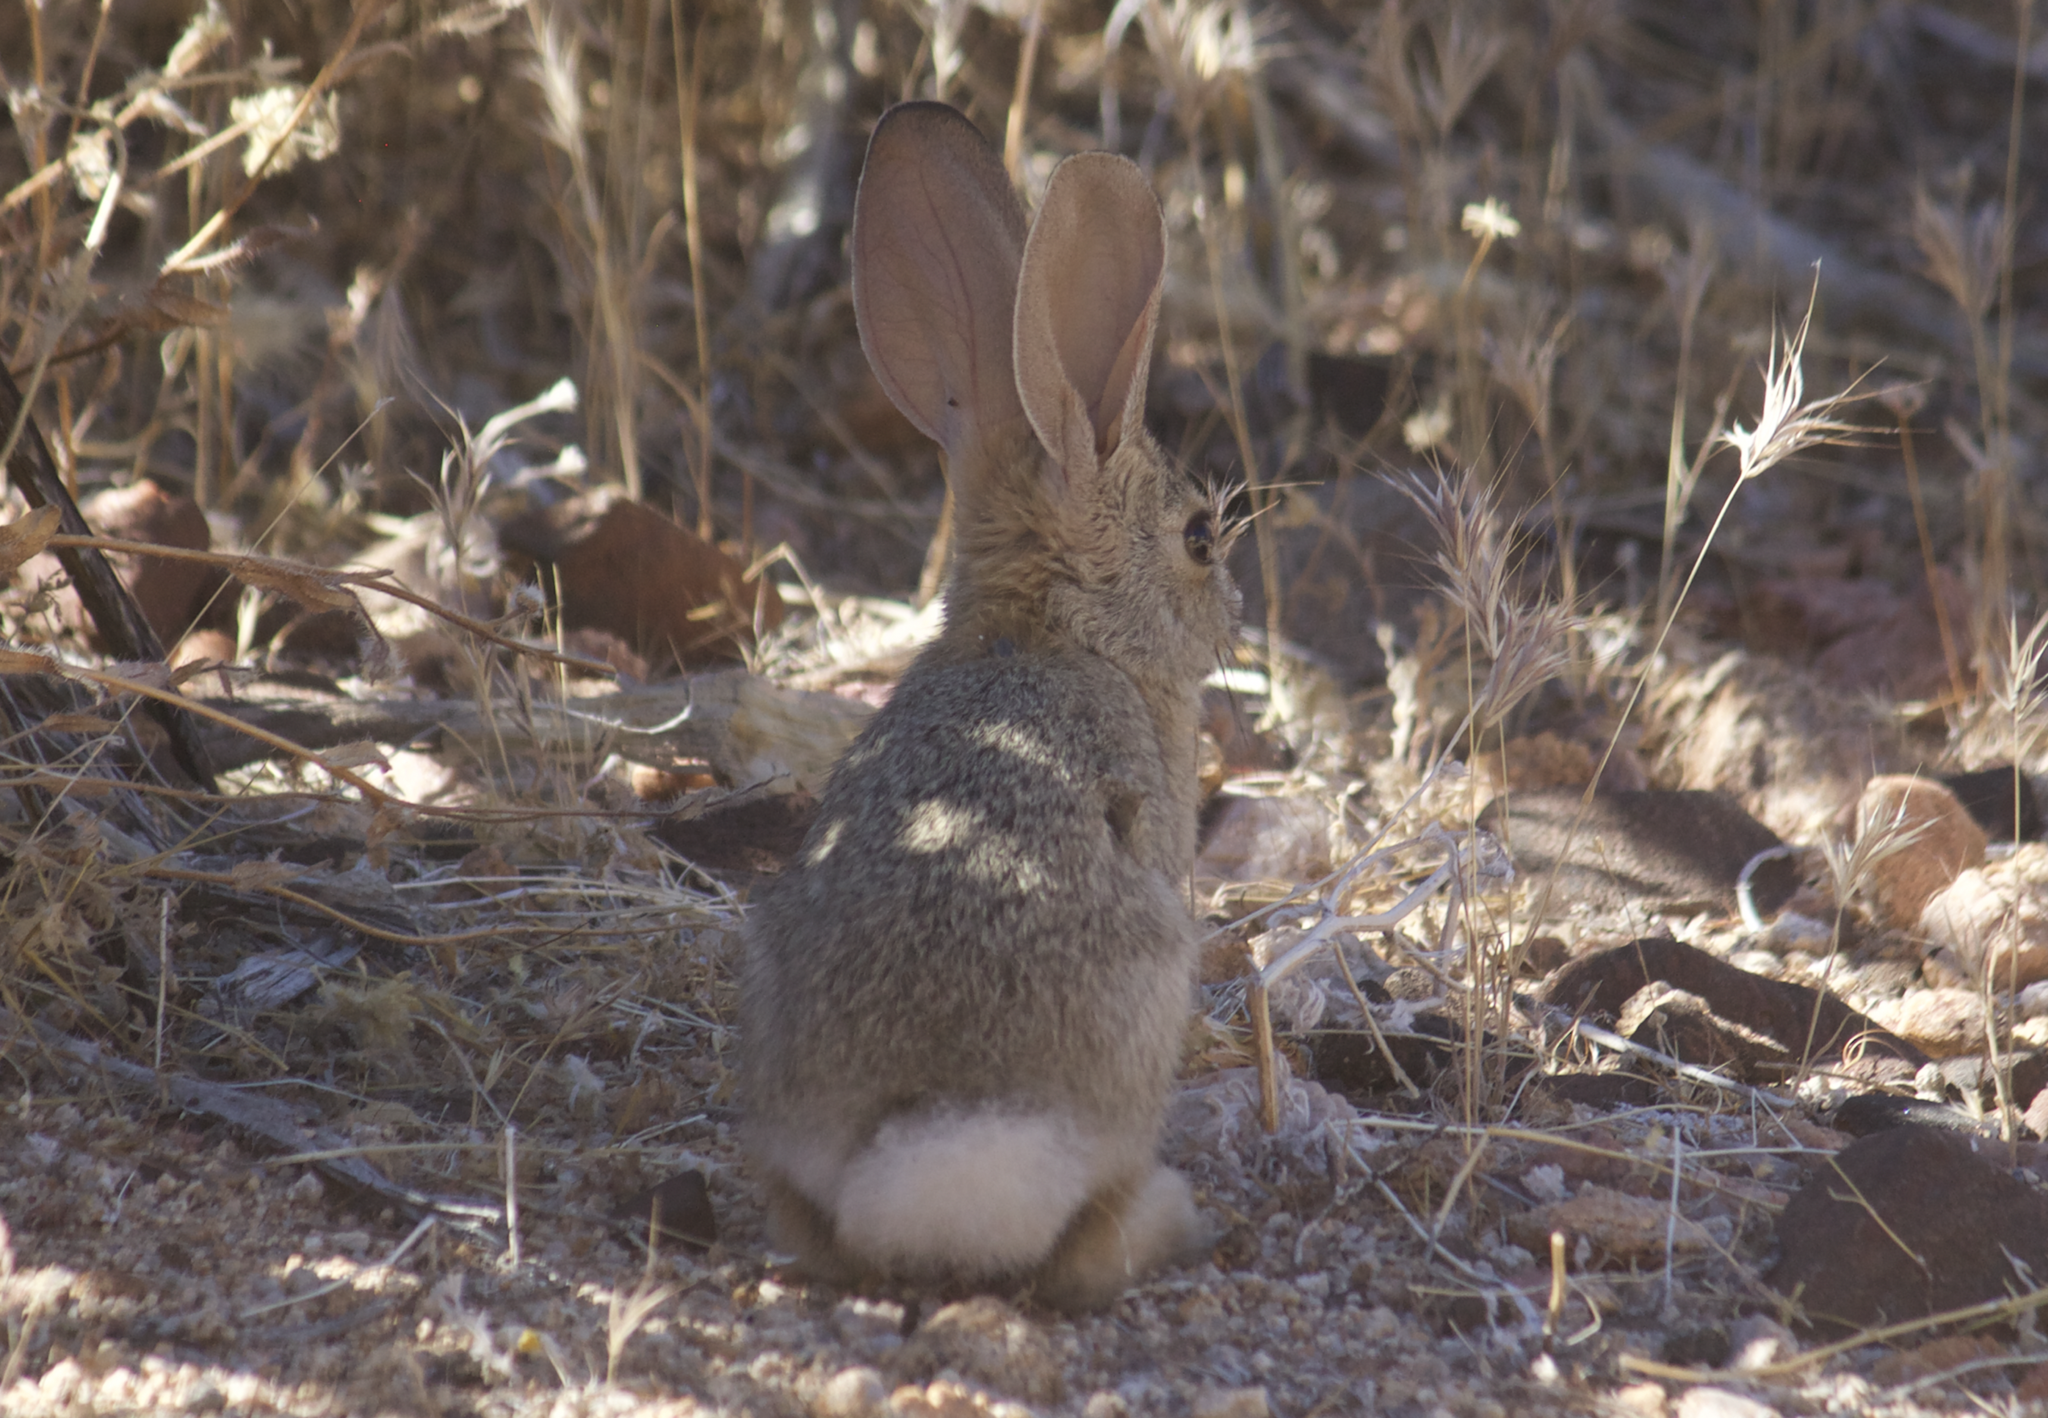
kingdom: Animalia
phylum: Chordata
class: Mammalia
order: Lagomorpha
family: Leporidae
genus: Sylvilagus
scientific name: Sylvilagus audubonii
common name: Desert cottontail
